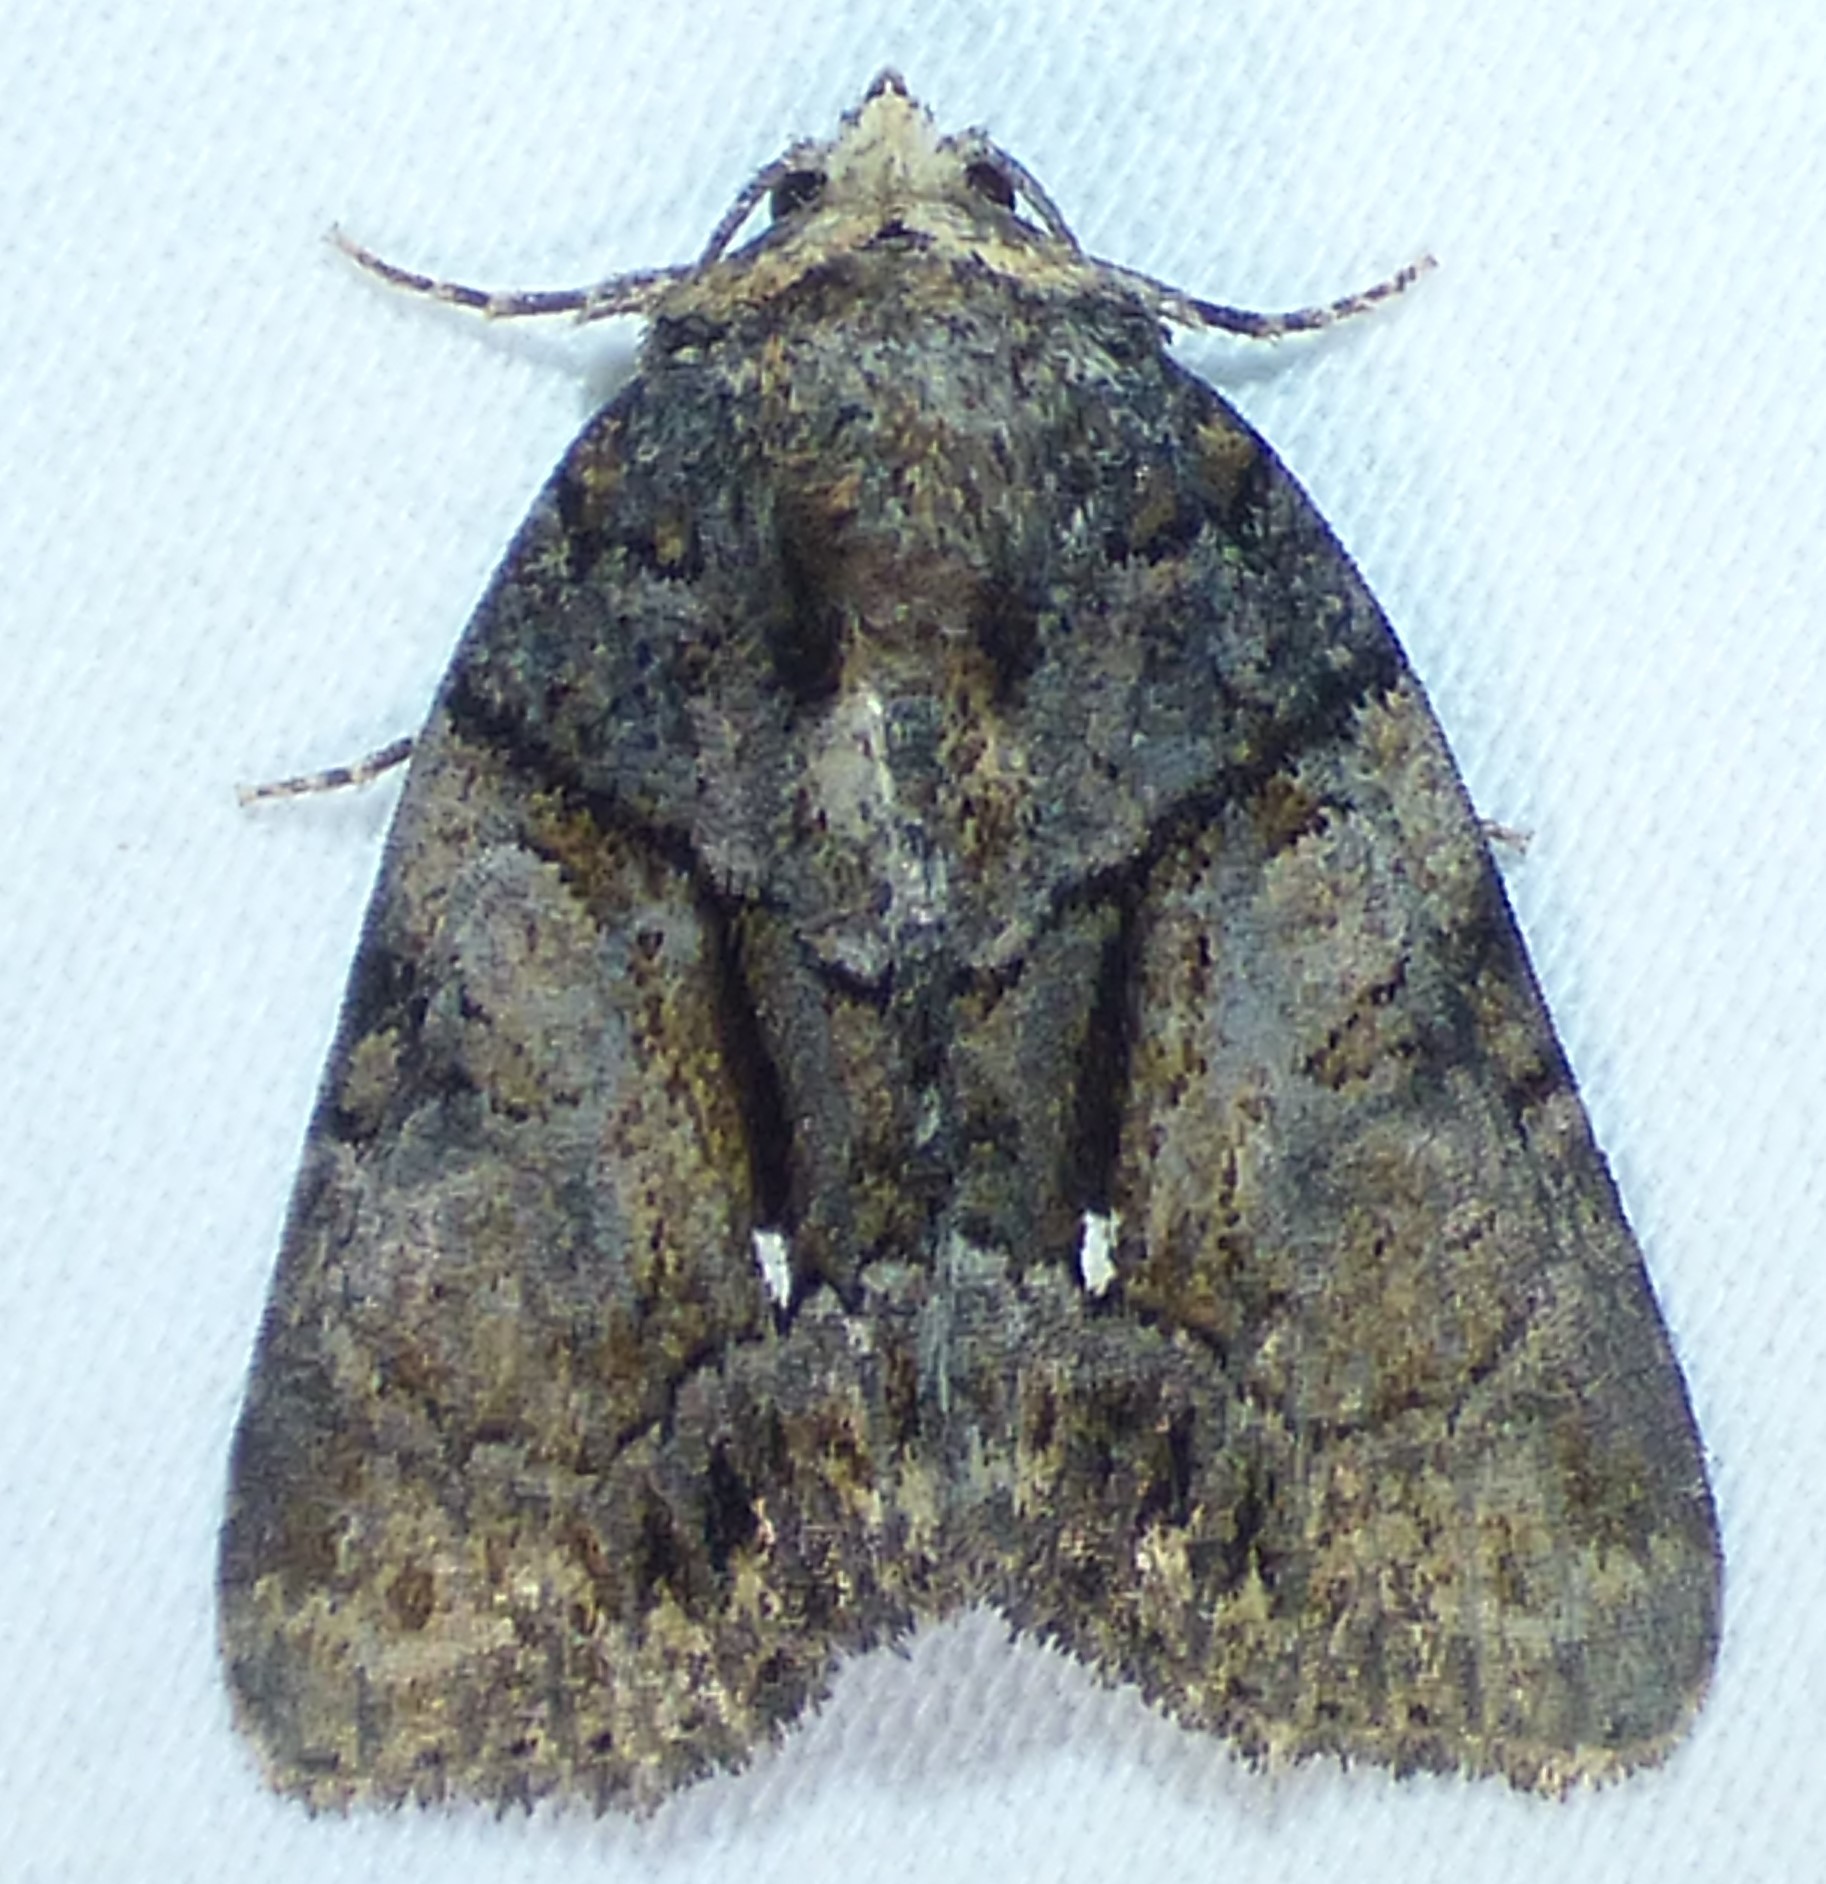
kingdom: Animalia
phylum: Arthropoda
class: Insecta
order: Lepidoptera
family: Noctuidae
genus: Chytonix
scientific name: Chytonix palliatricula
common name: Cloaked marvel
